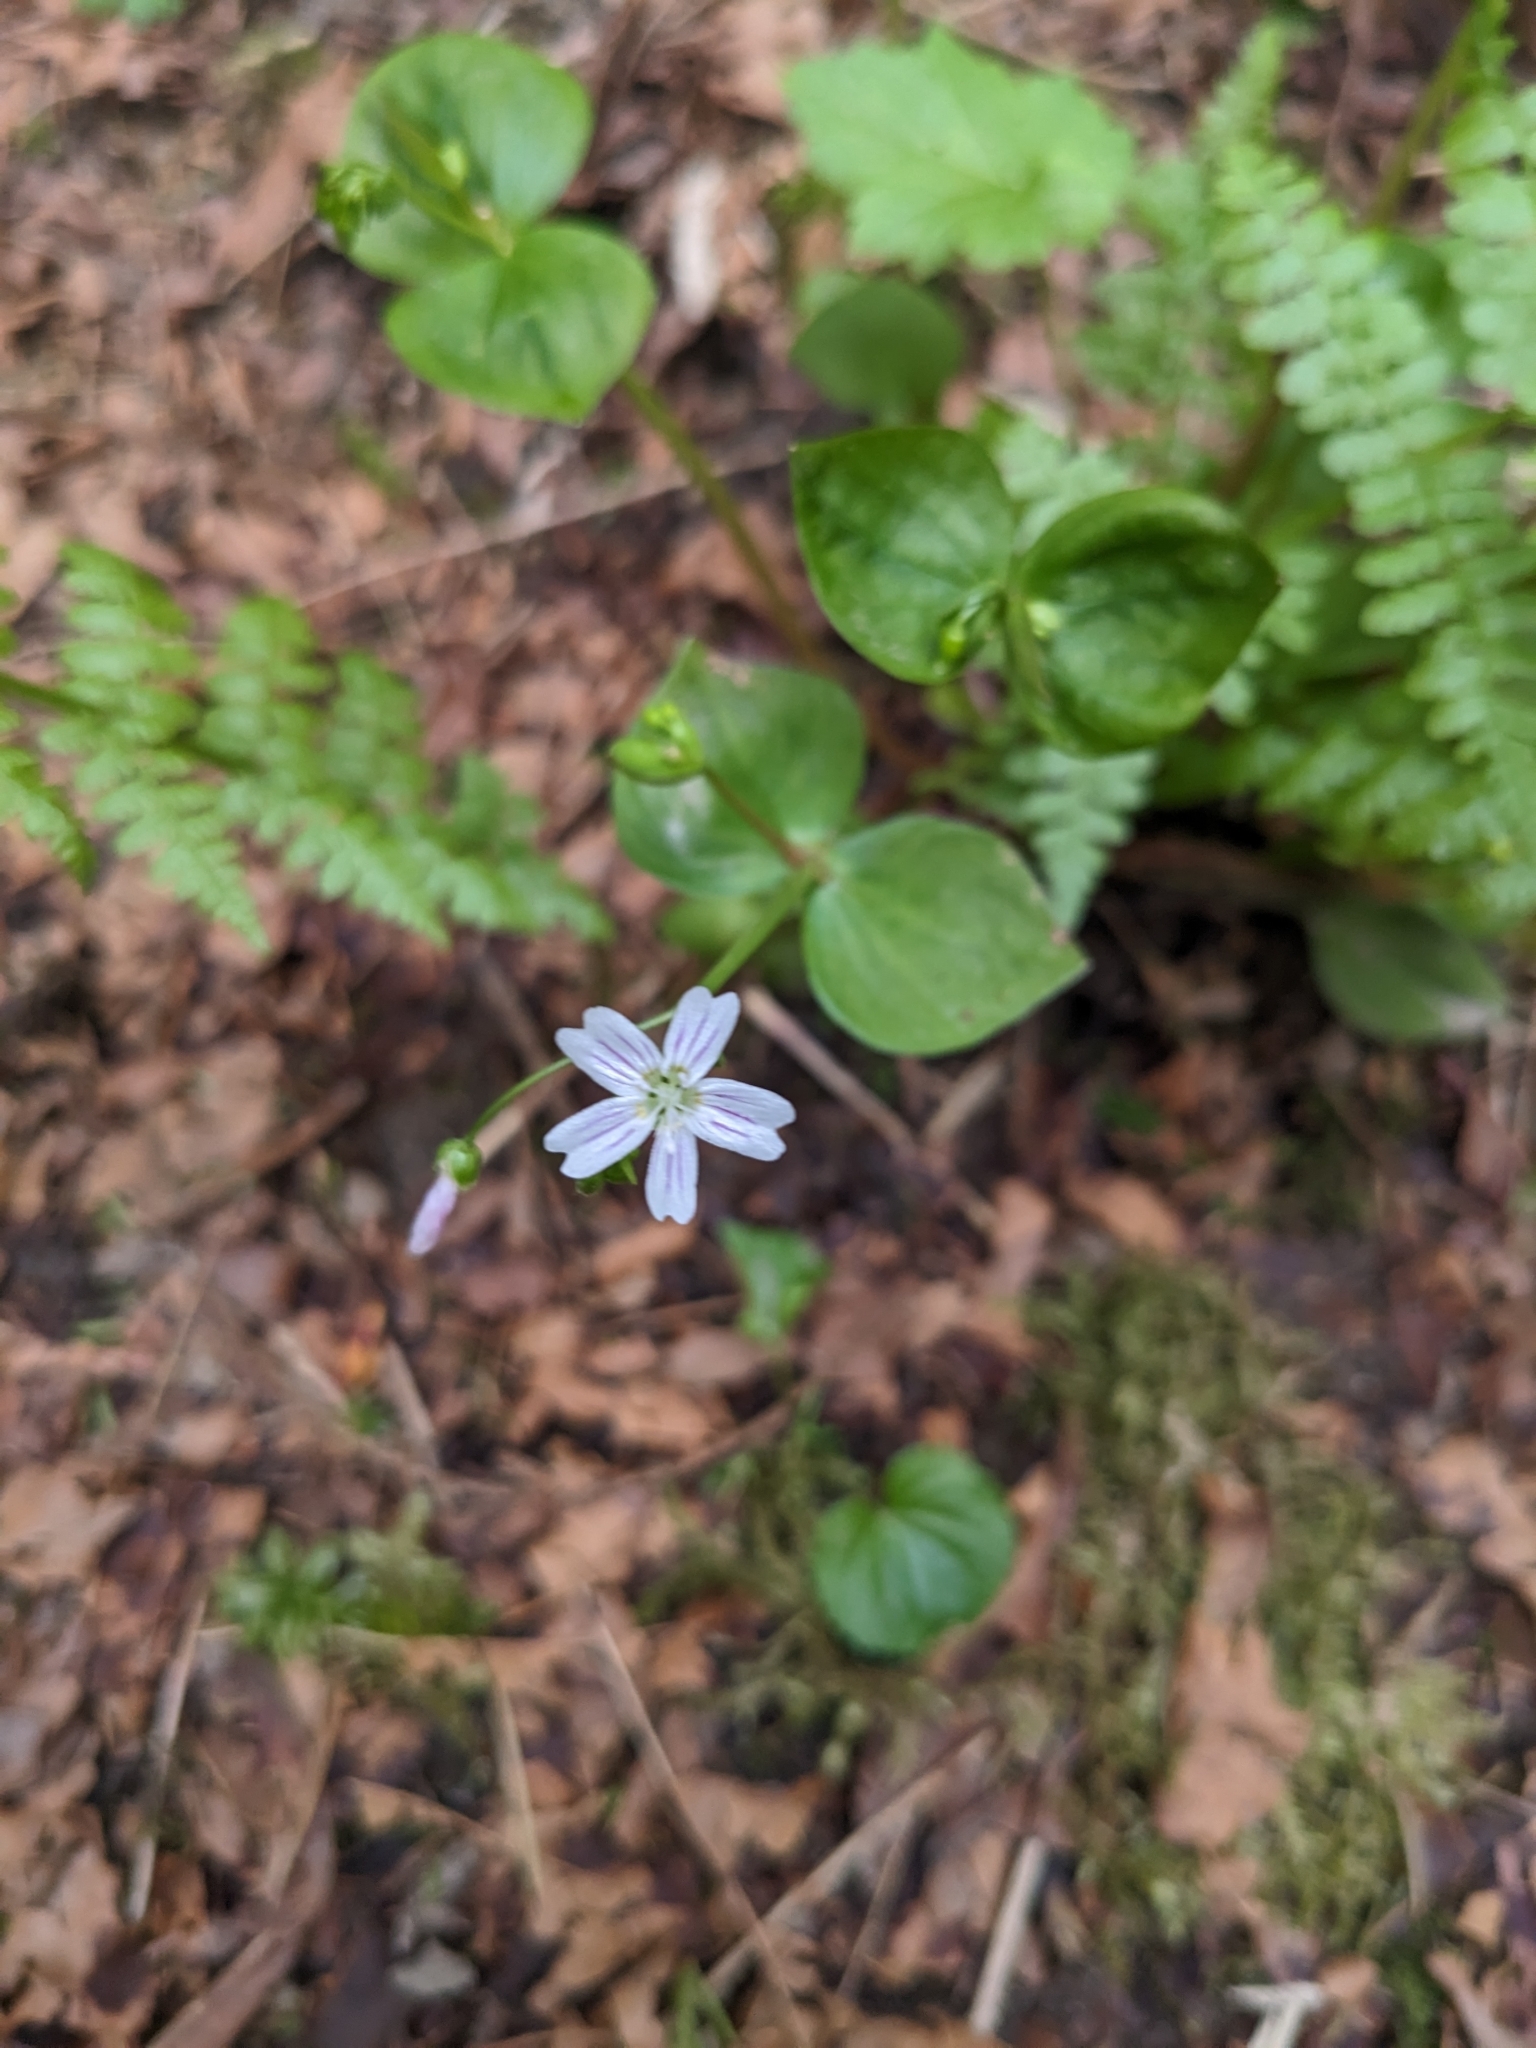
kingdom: Plantae
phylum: Tracheophyta
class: Magnoliopsida
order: Caryophyllales
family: Montiaceae
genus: Claytonia
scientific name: Claytonia sibirica
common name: Pink purslane
